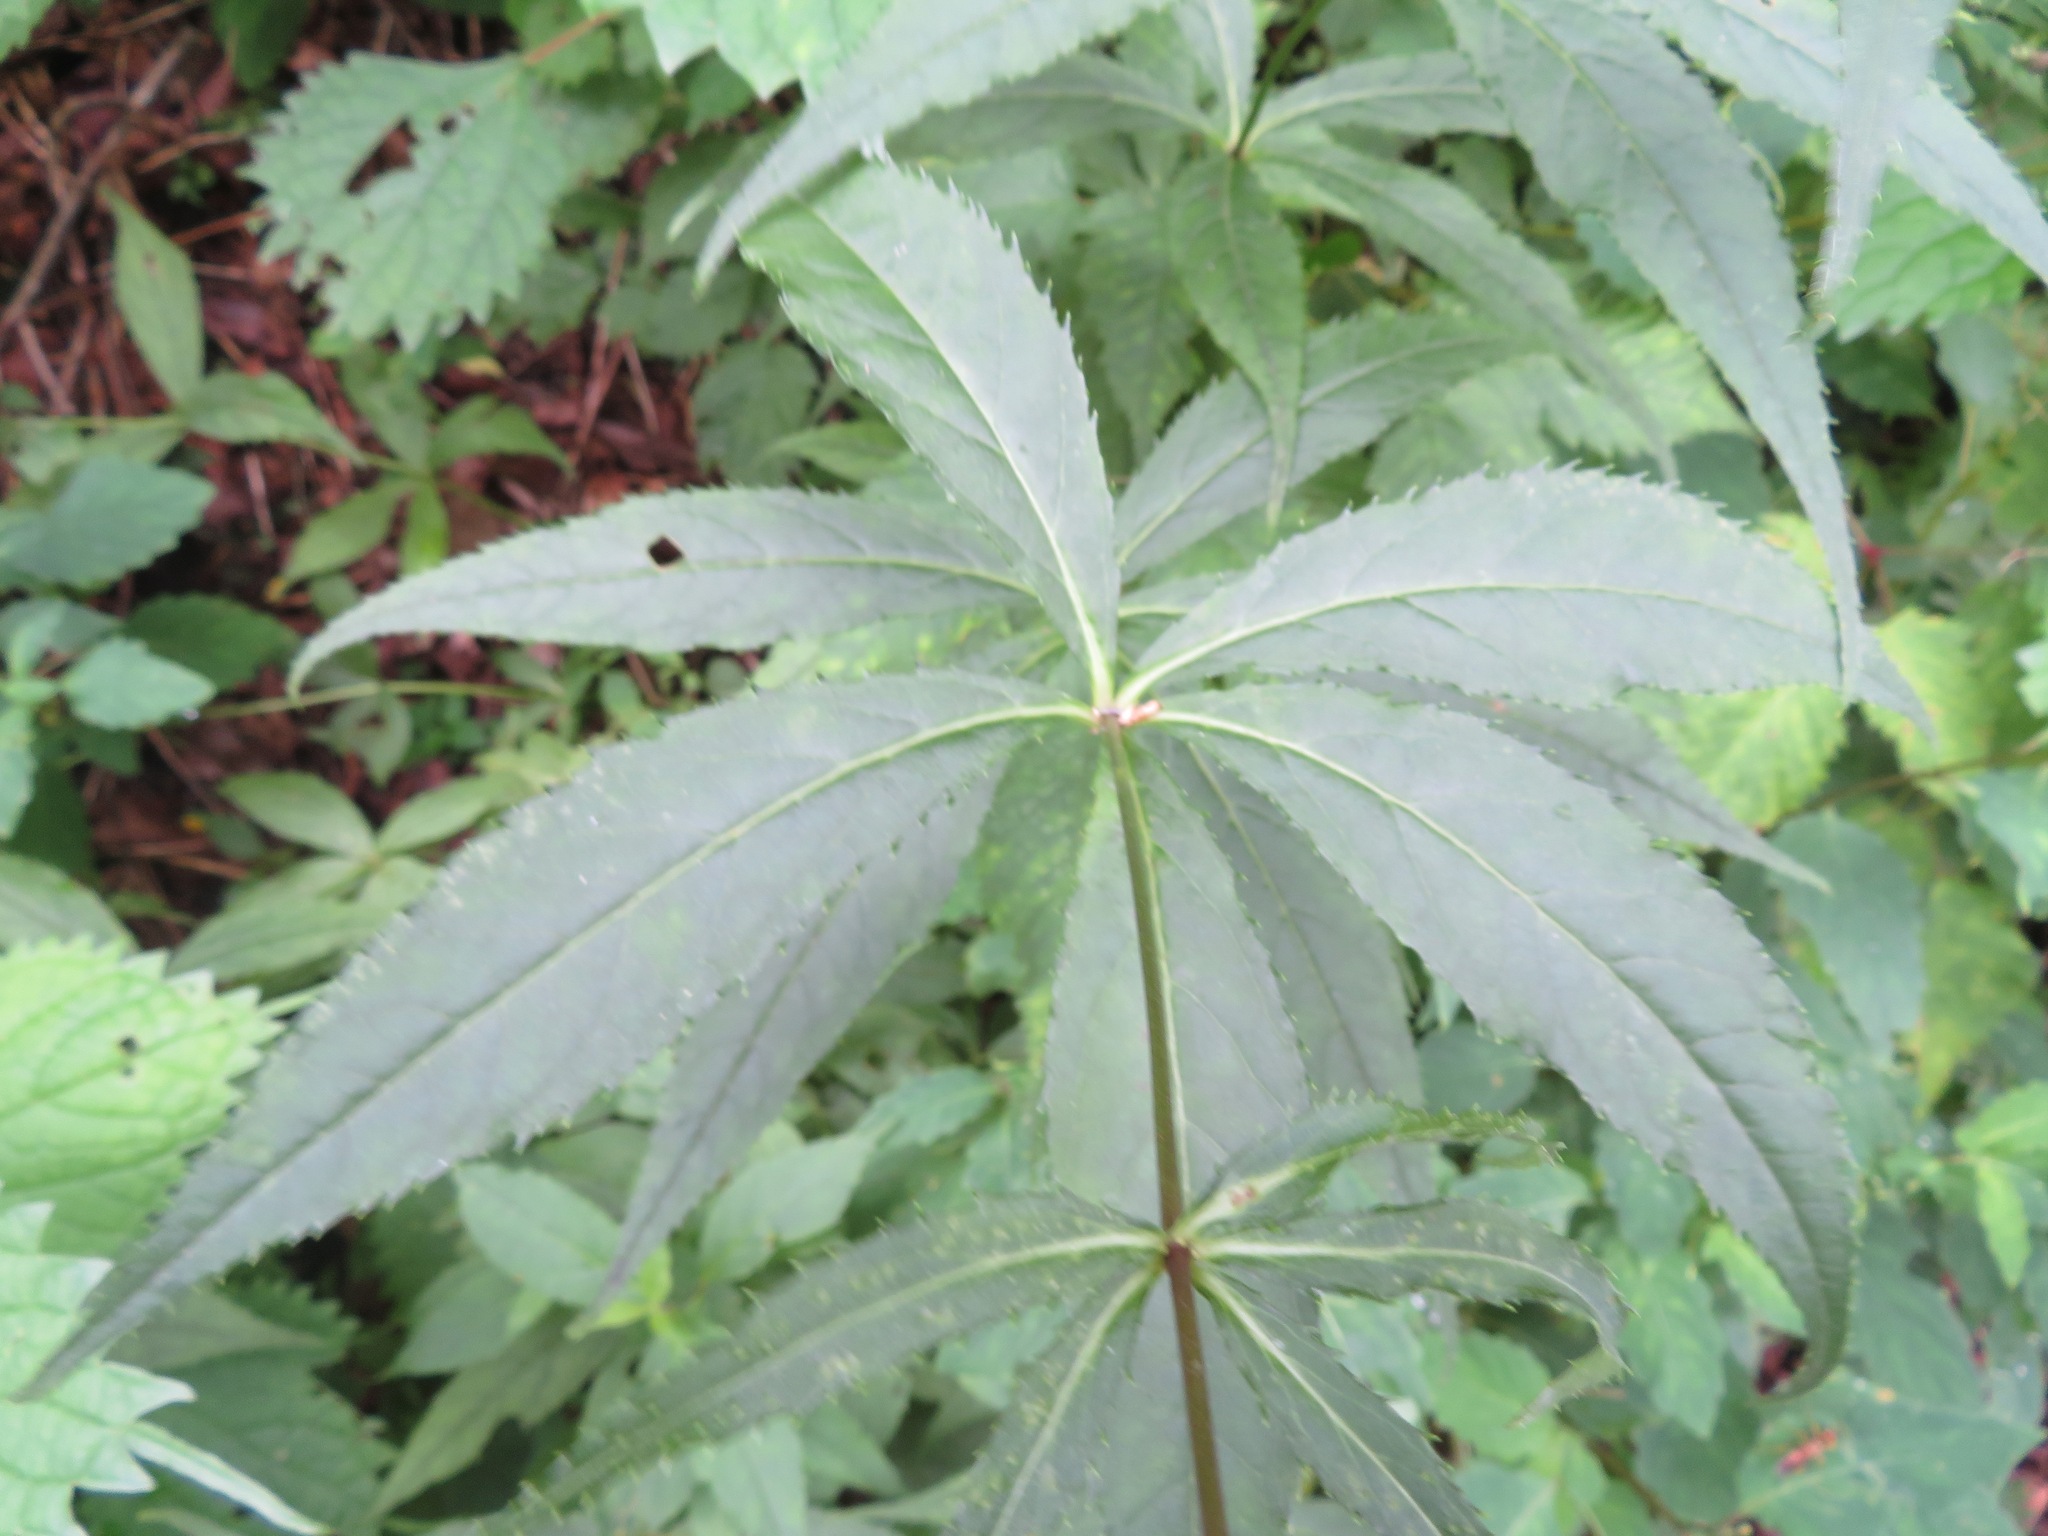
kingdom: Plantae
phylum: Tracheophyta
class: Magnoliopsida
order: Lamiales
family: Plantaginaceae
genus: Veronicastrum
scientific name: Veronicastrum japonicum
